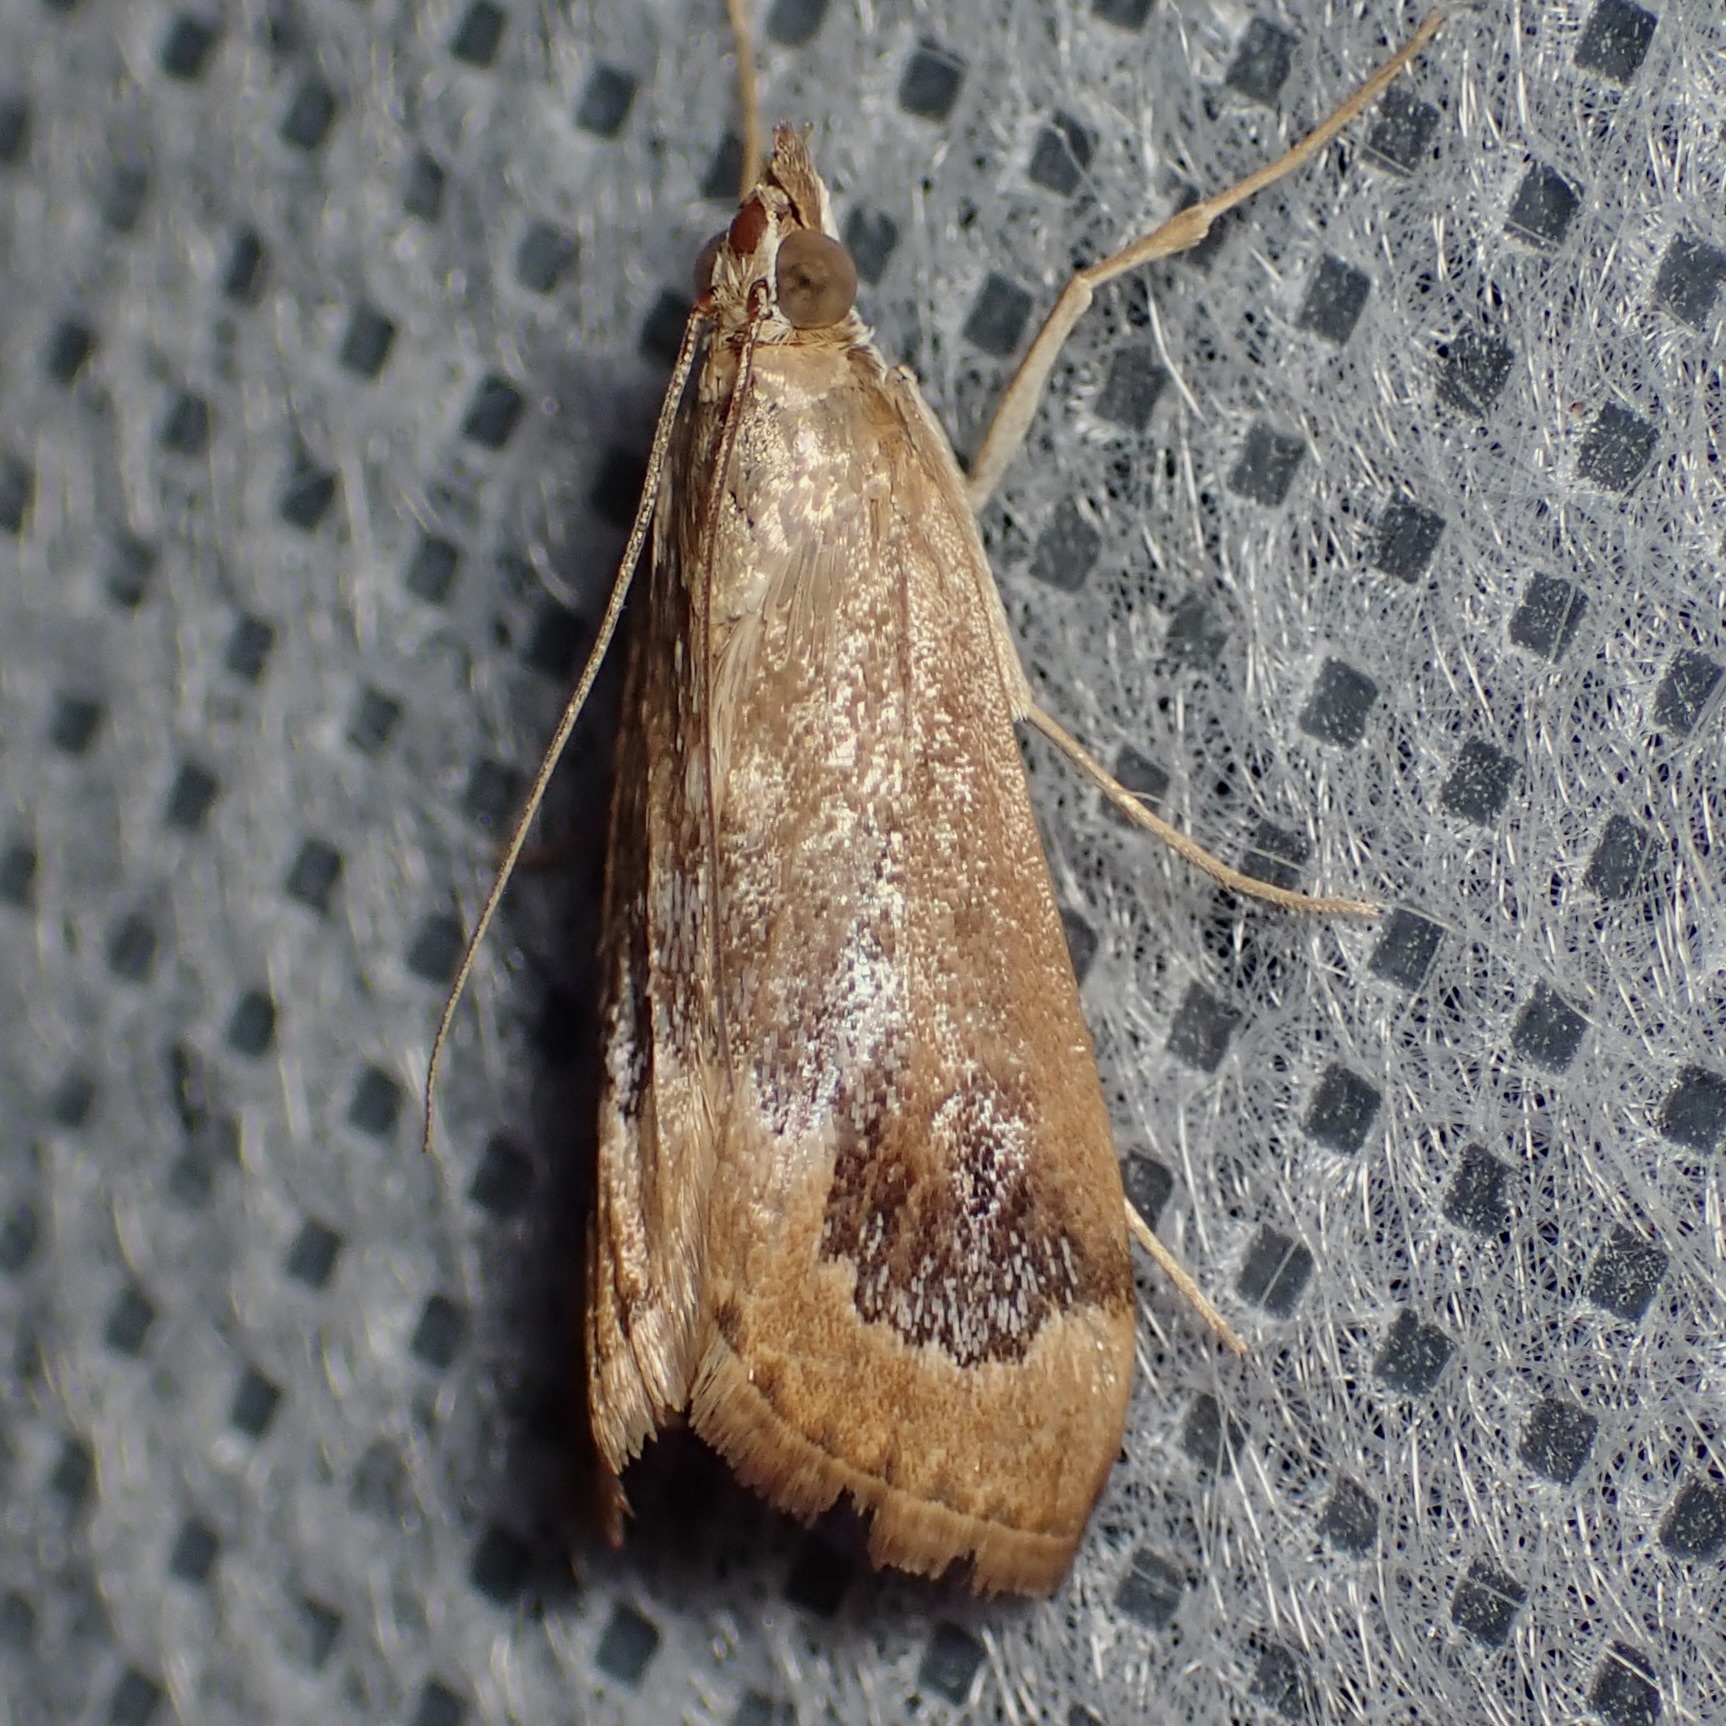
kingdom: Animalia
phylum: Arthropoda
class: Insecta
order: Lepidoptera
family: Crambidae
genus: Loxostege
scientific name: Loxostege typhonalis
